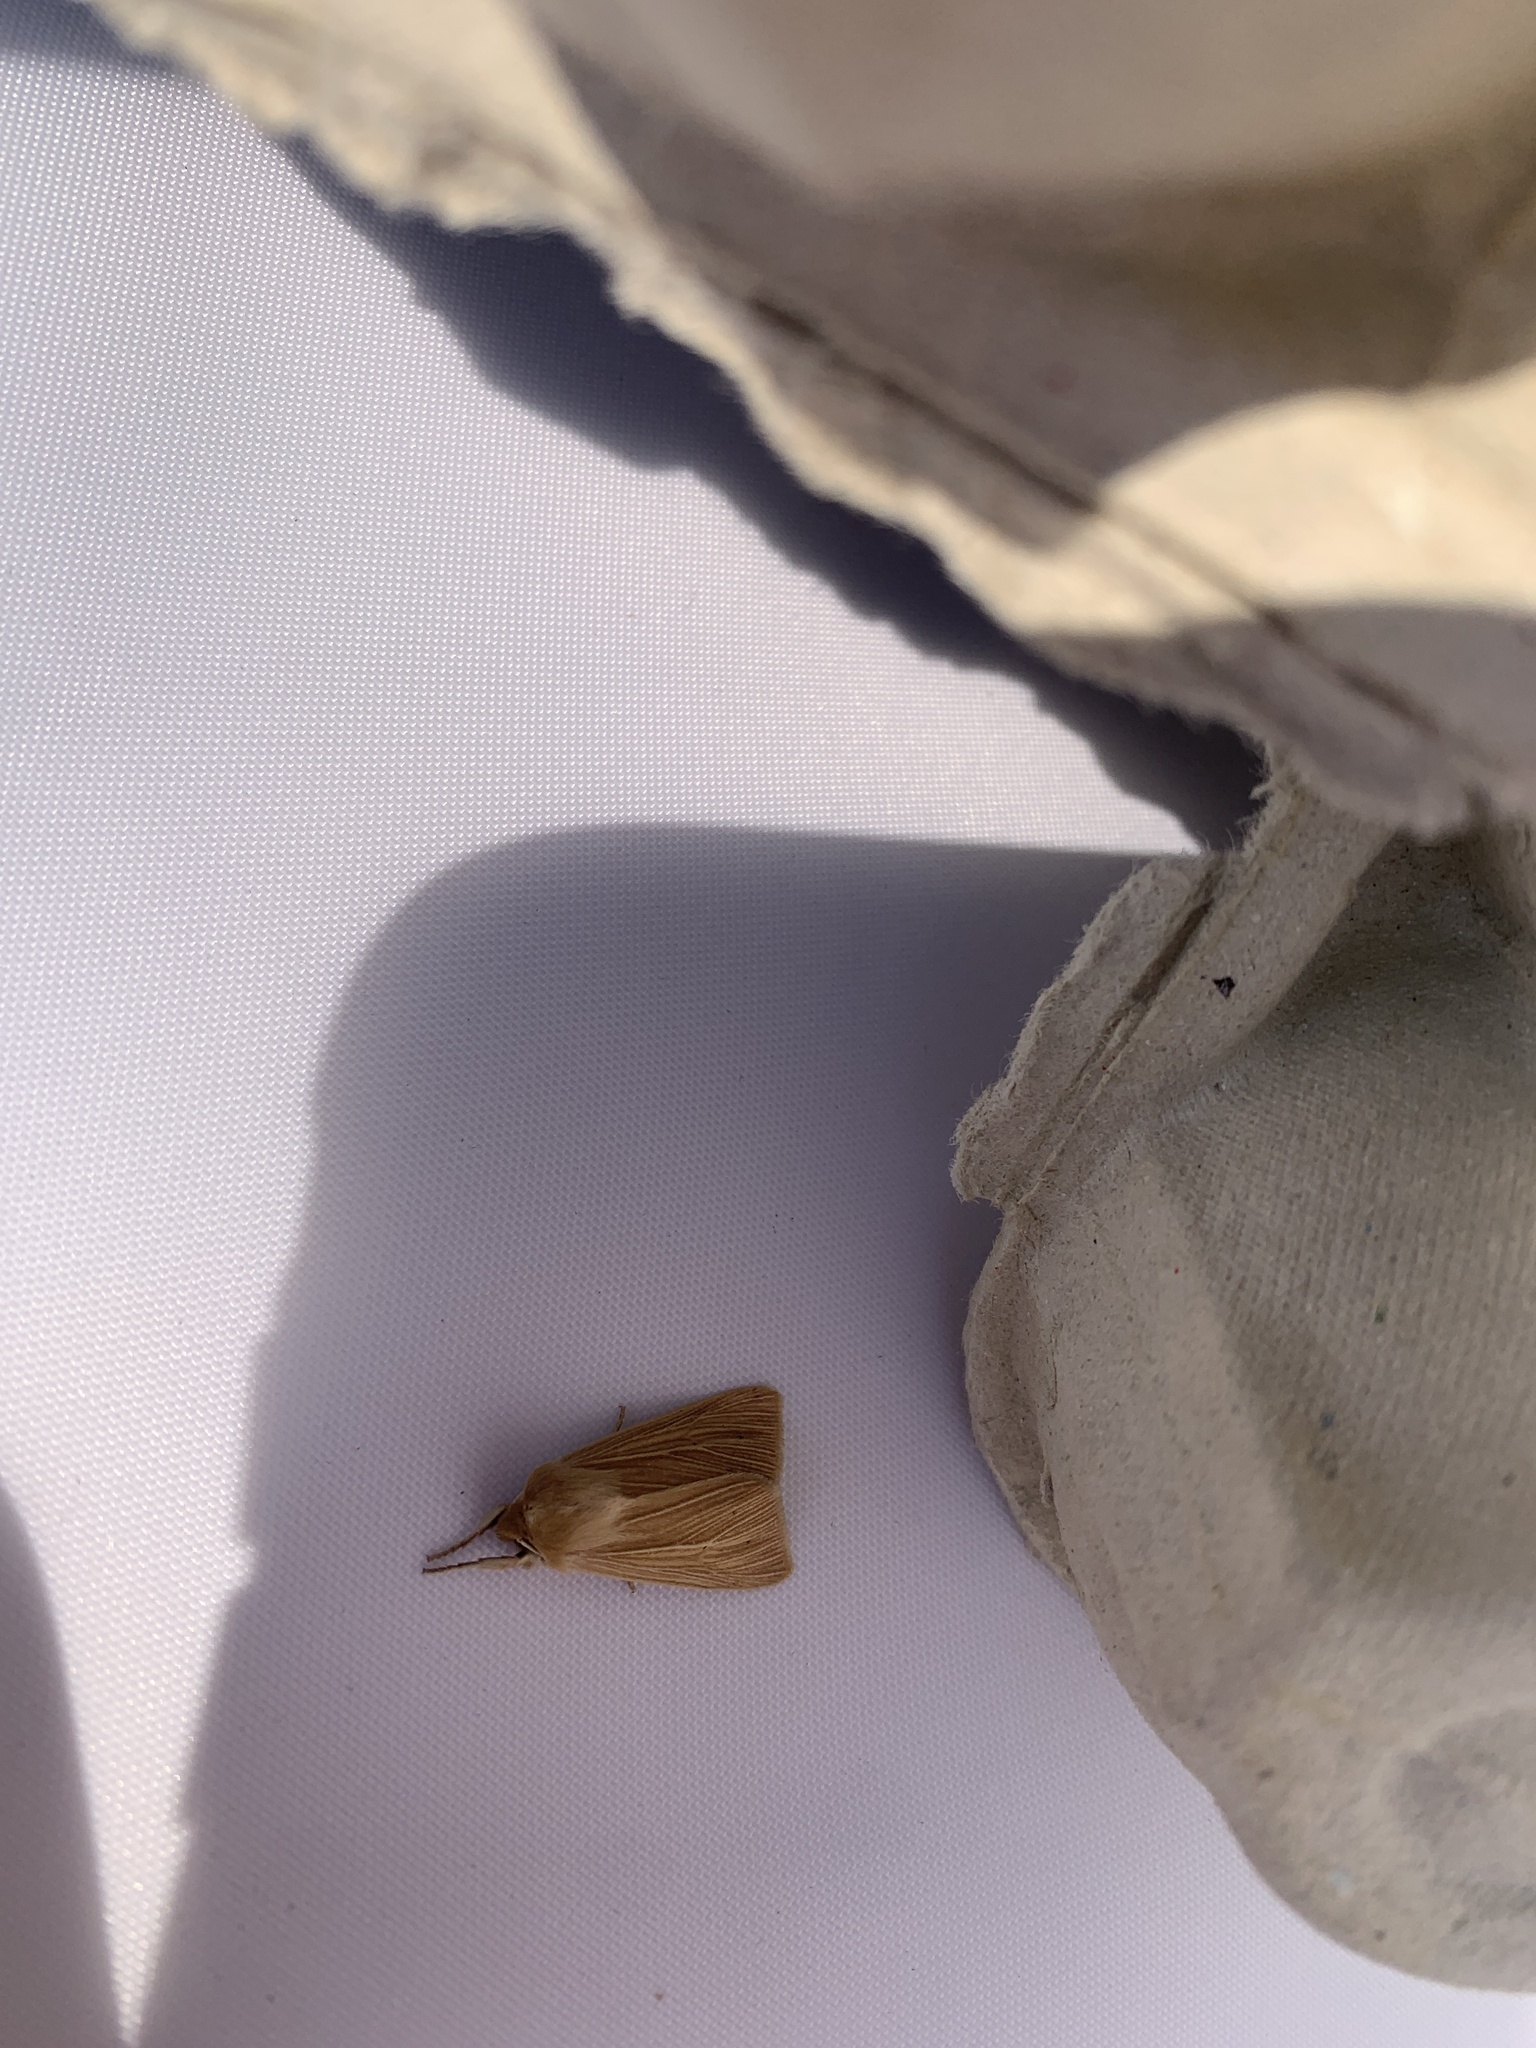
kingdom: Animalia
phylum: Arthropoda
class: Insecta
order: Lepidoptera
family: Noctuidae
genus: Mythimna
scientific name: Mythimna pallens
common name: Common wainscot
